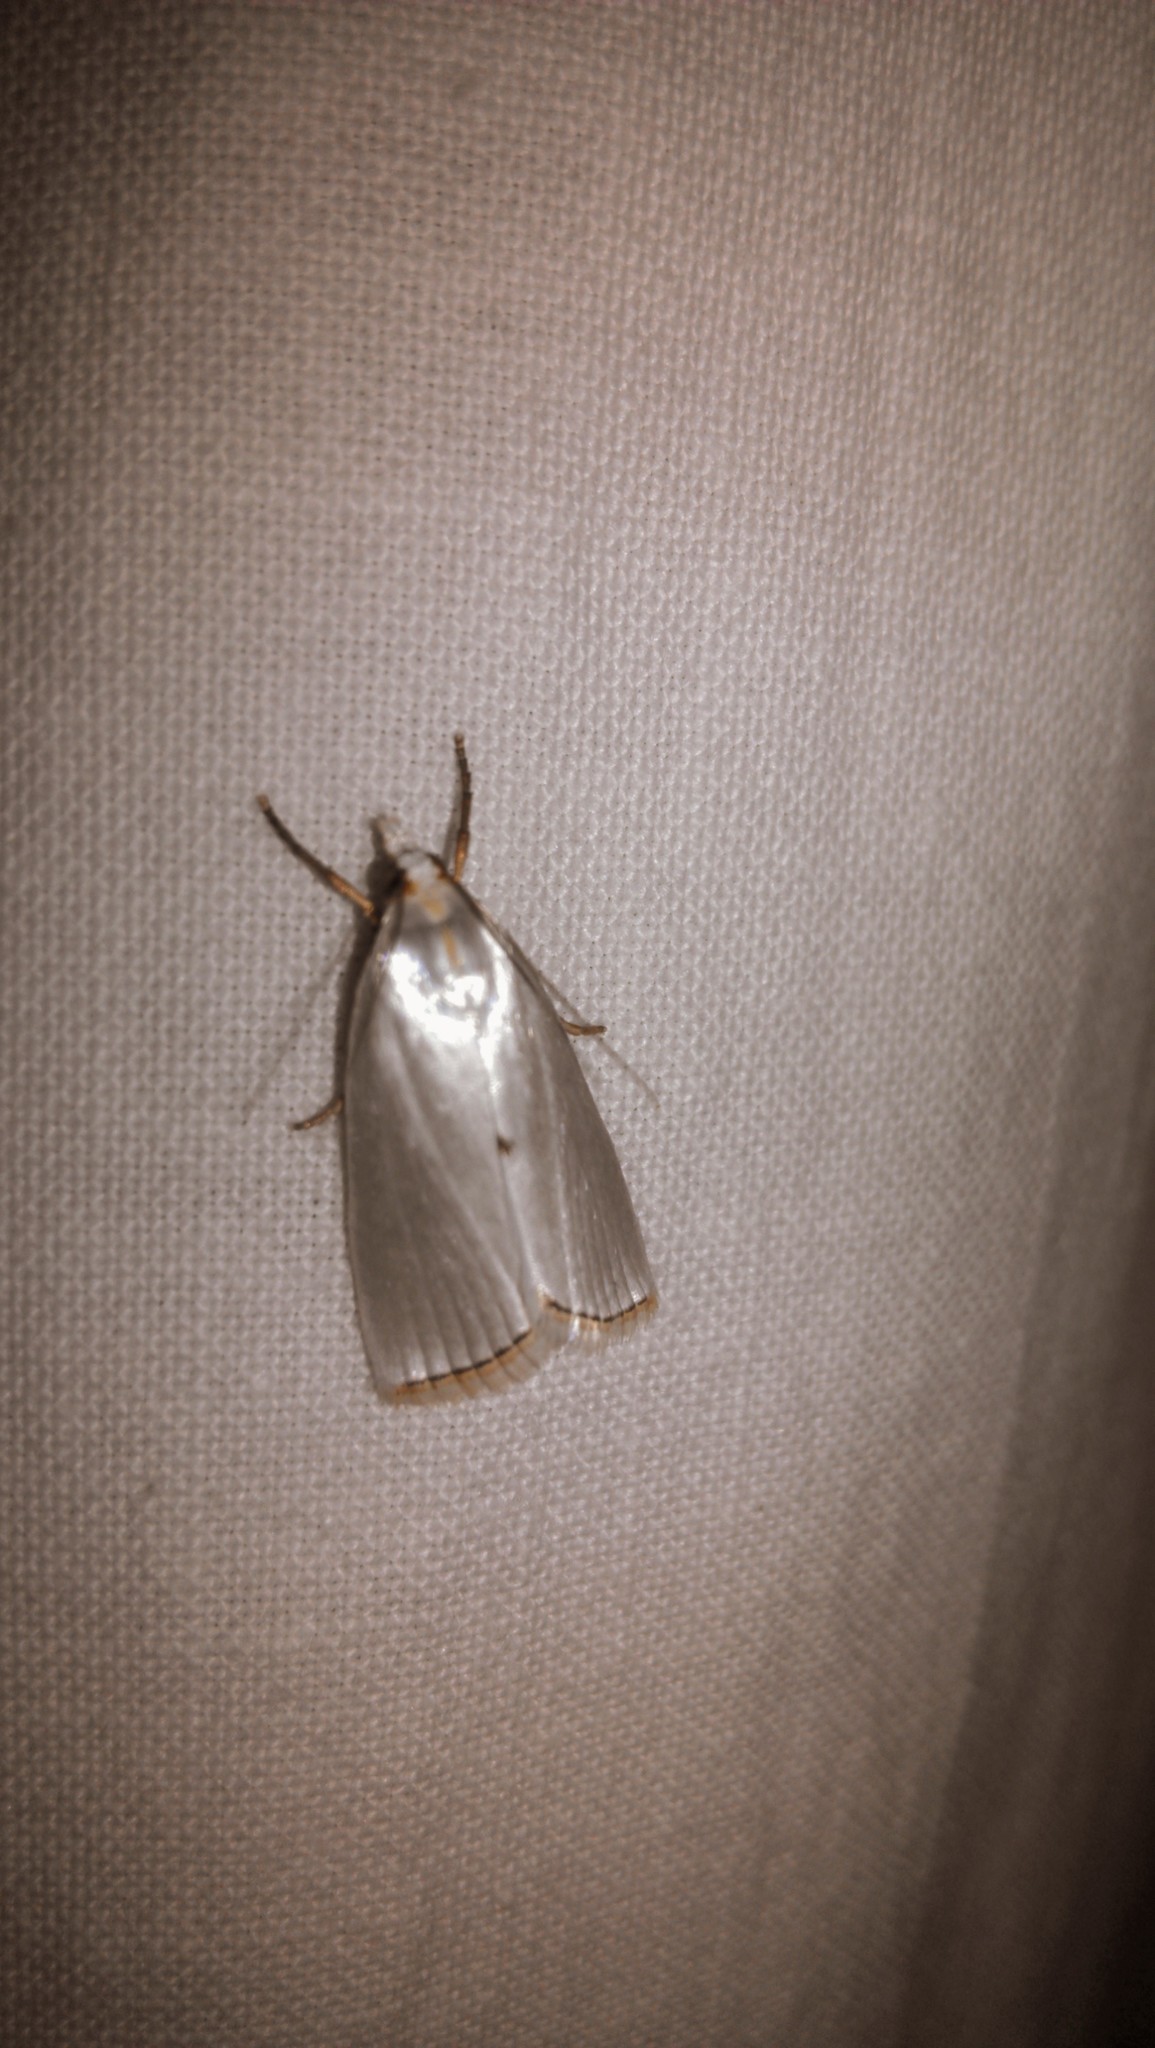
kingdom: Animalia
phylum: Arthropoda
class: Insecta
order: Lepidoptera
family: Crambidae
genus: Argyria
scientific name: Argyria nivalis
